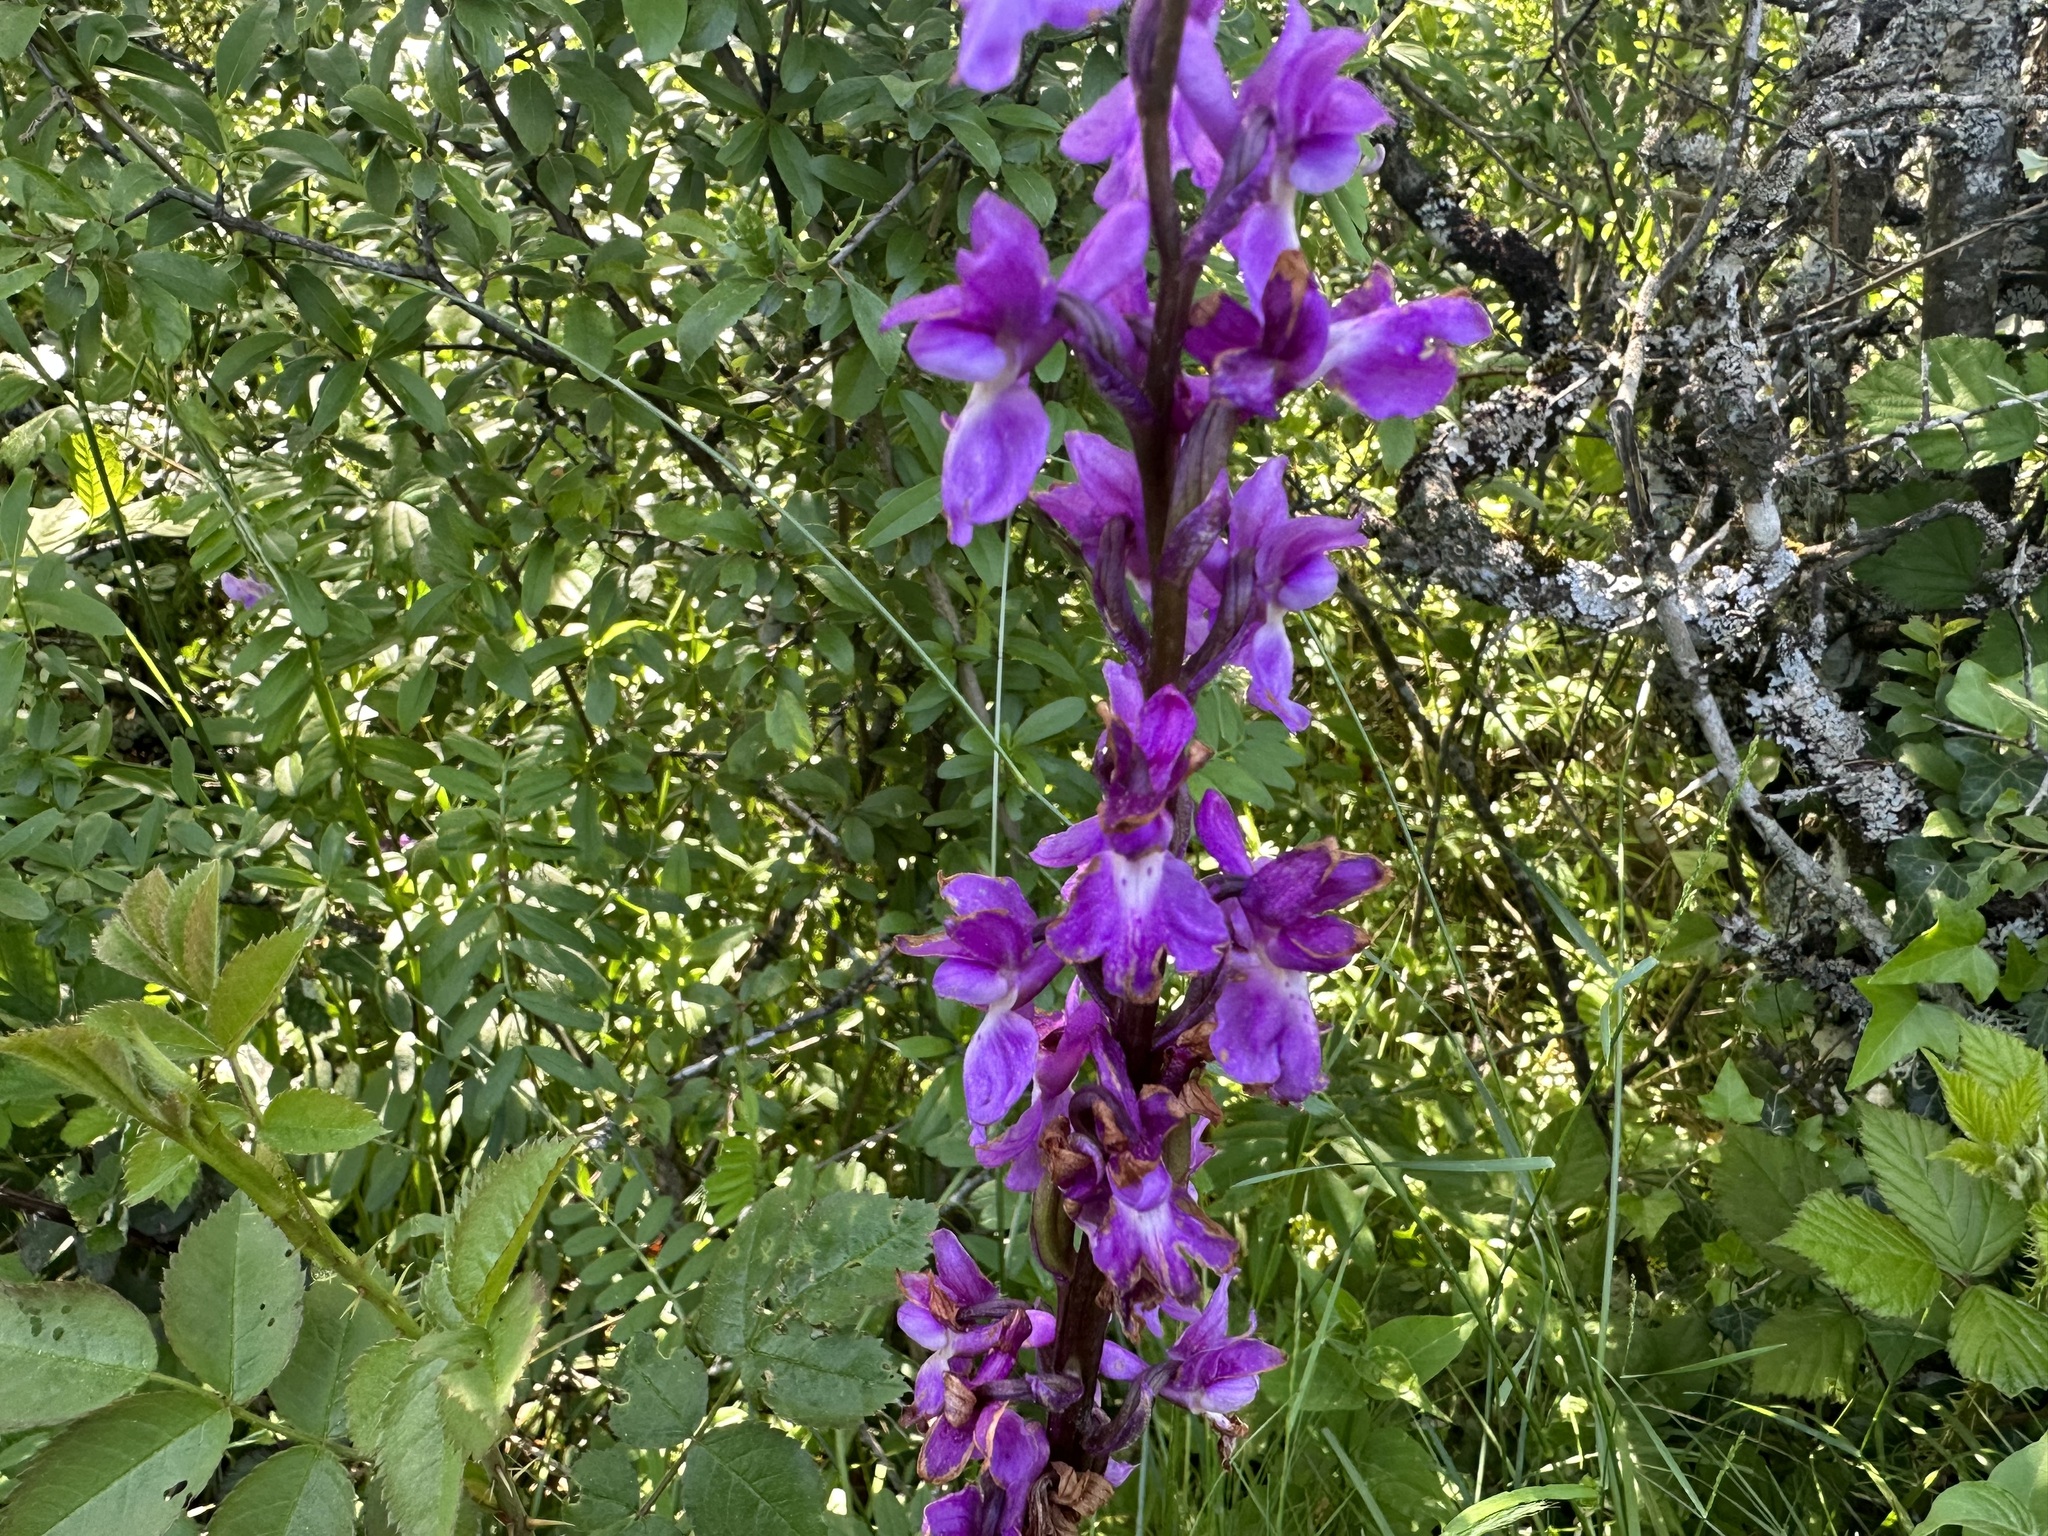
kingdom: Plantae
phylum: Tracheophyta
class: Liliopsida
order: Asparagales
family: Orchidaceae
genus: Orchis
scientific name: Orchis mascula
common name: Early-purple orchid
